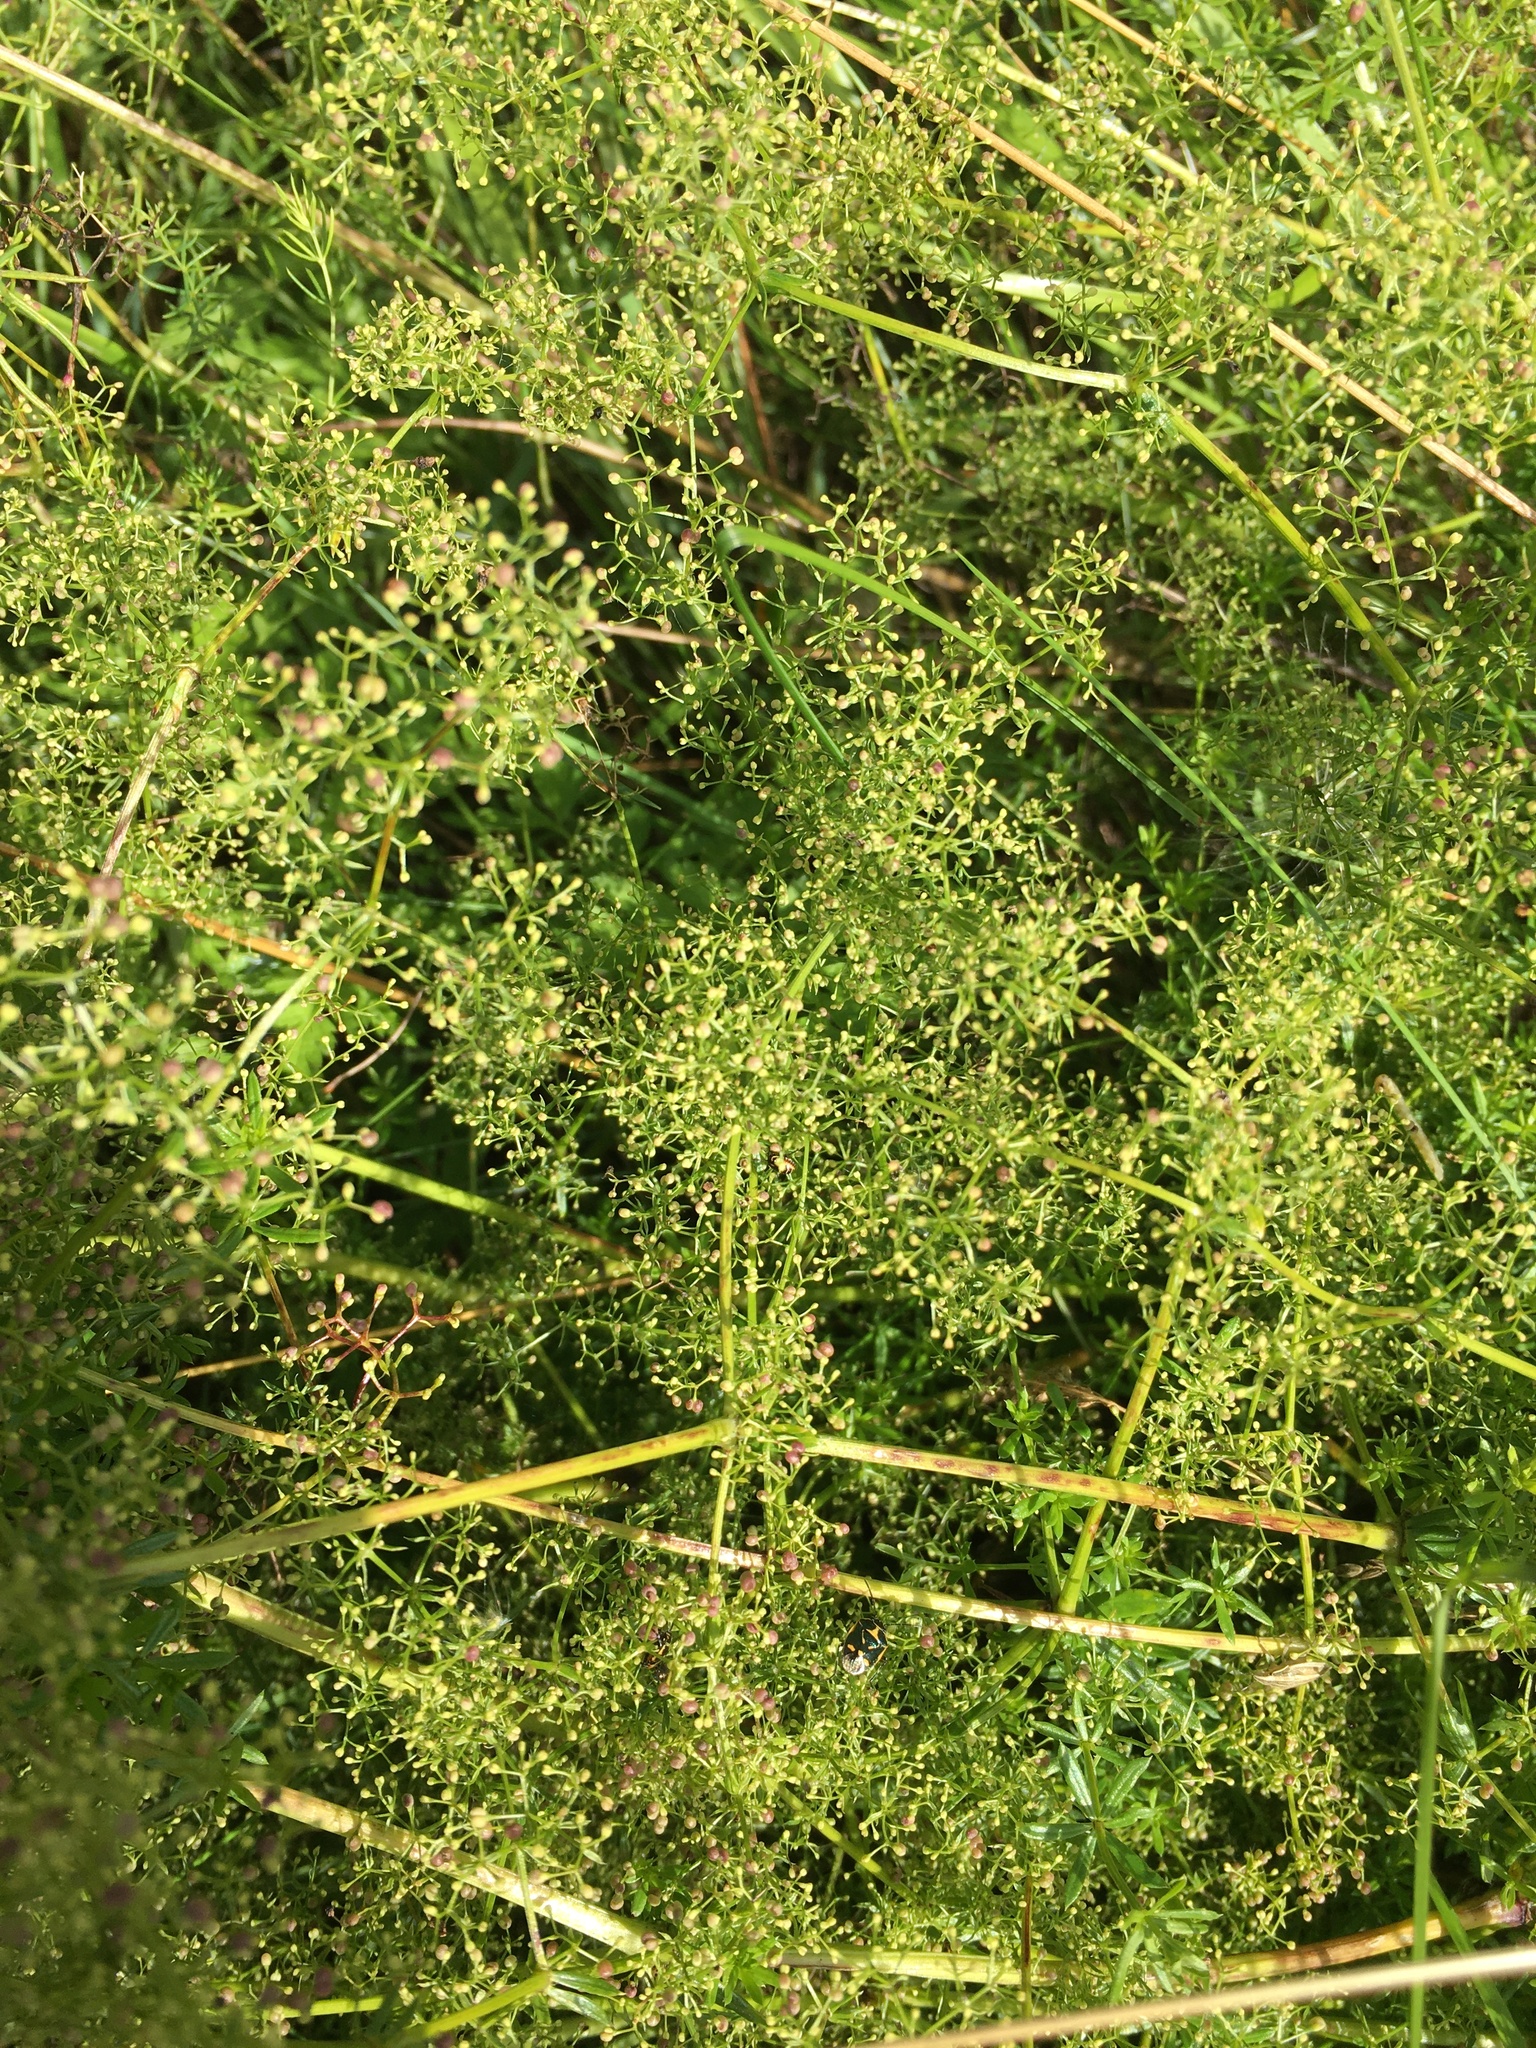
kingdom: Plantae
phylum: Tracheophyta
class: Magnoliopsida
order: Gentianales
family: Rubiaceae
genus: Galium
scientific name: Galium mollugo
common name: Hedge bedstraw
